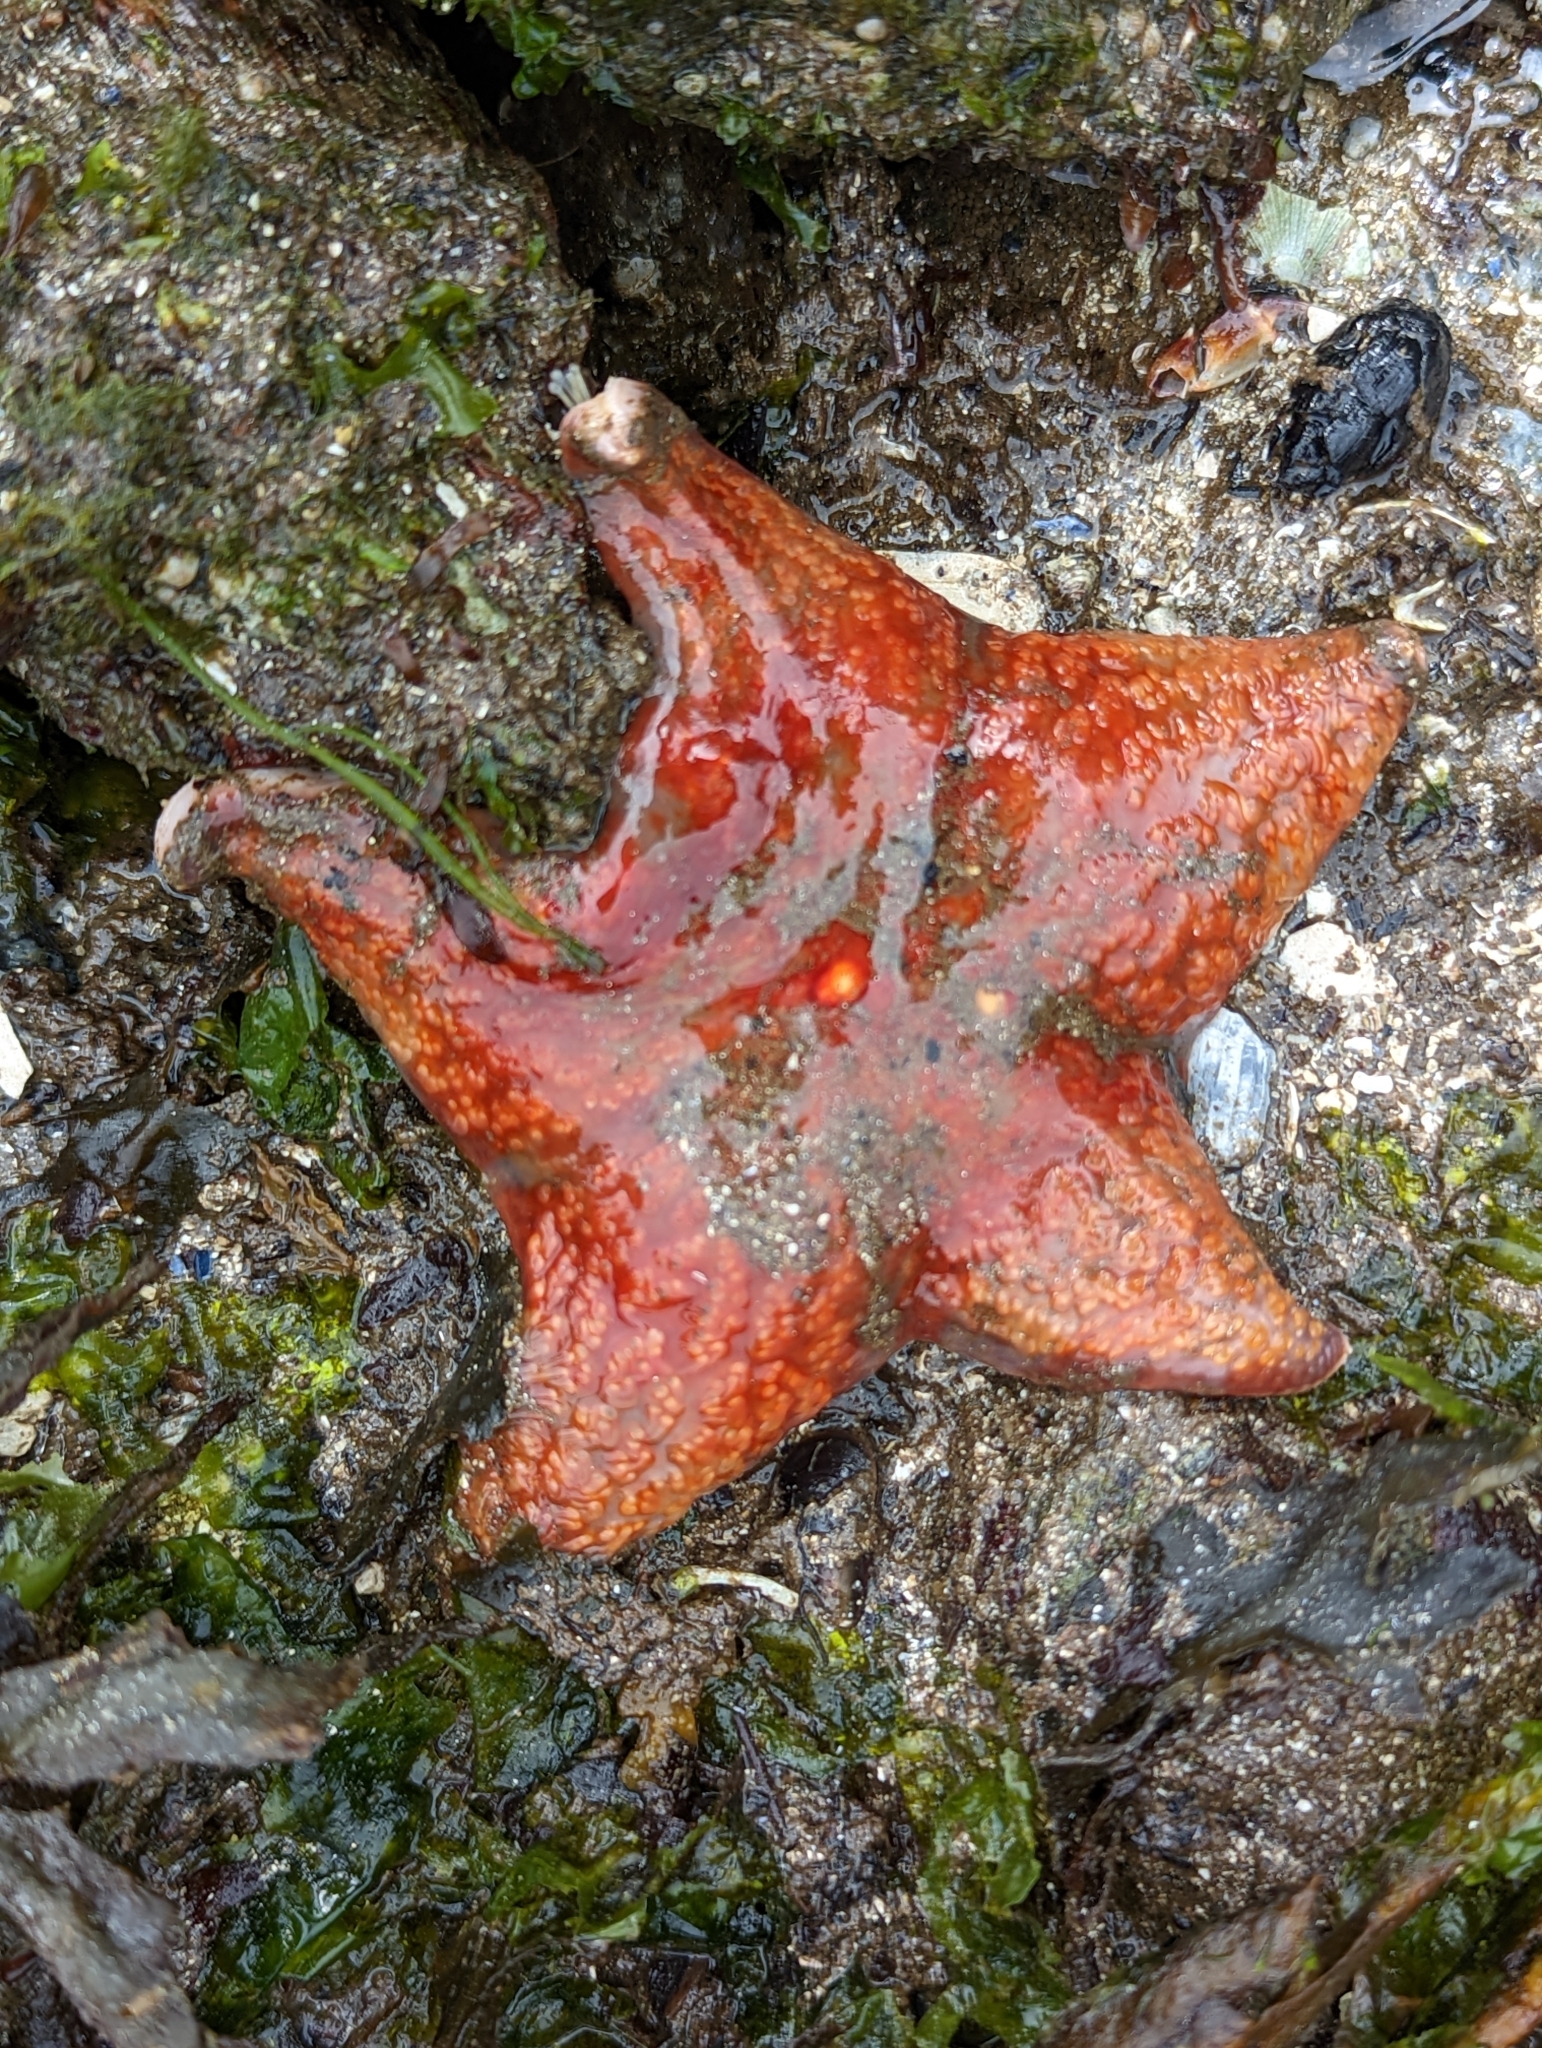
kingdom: Animalia
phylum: Echinodermata
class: Asteroidea
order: Valvatida
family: Asteropseidae
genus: Dermasterias
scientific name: Dermasterias imbricata
